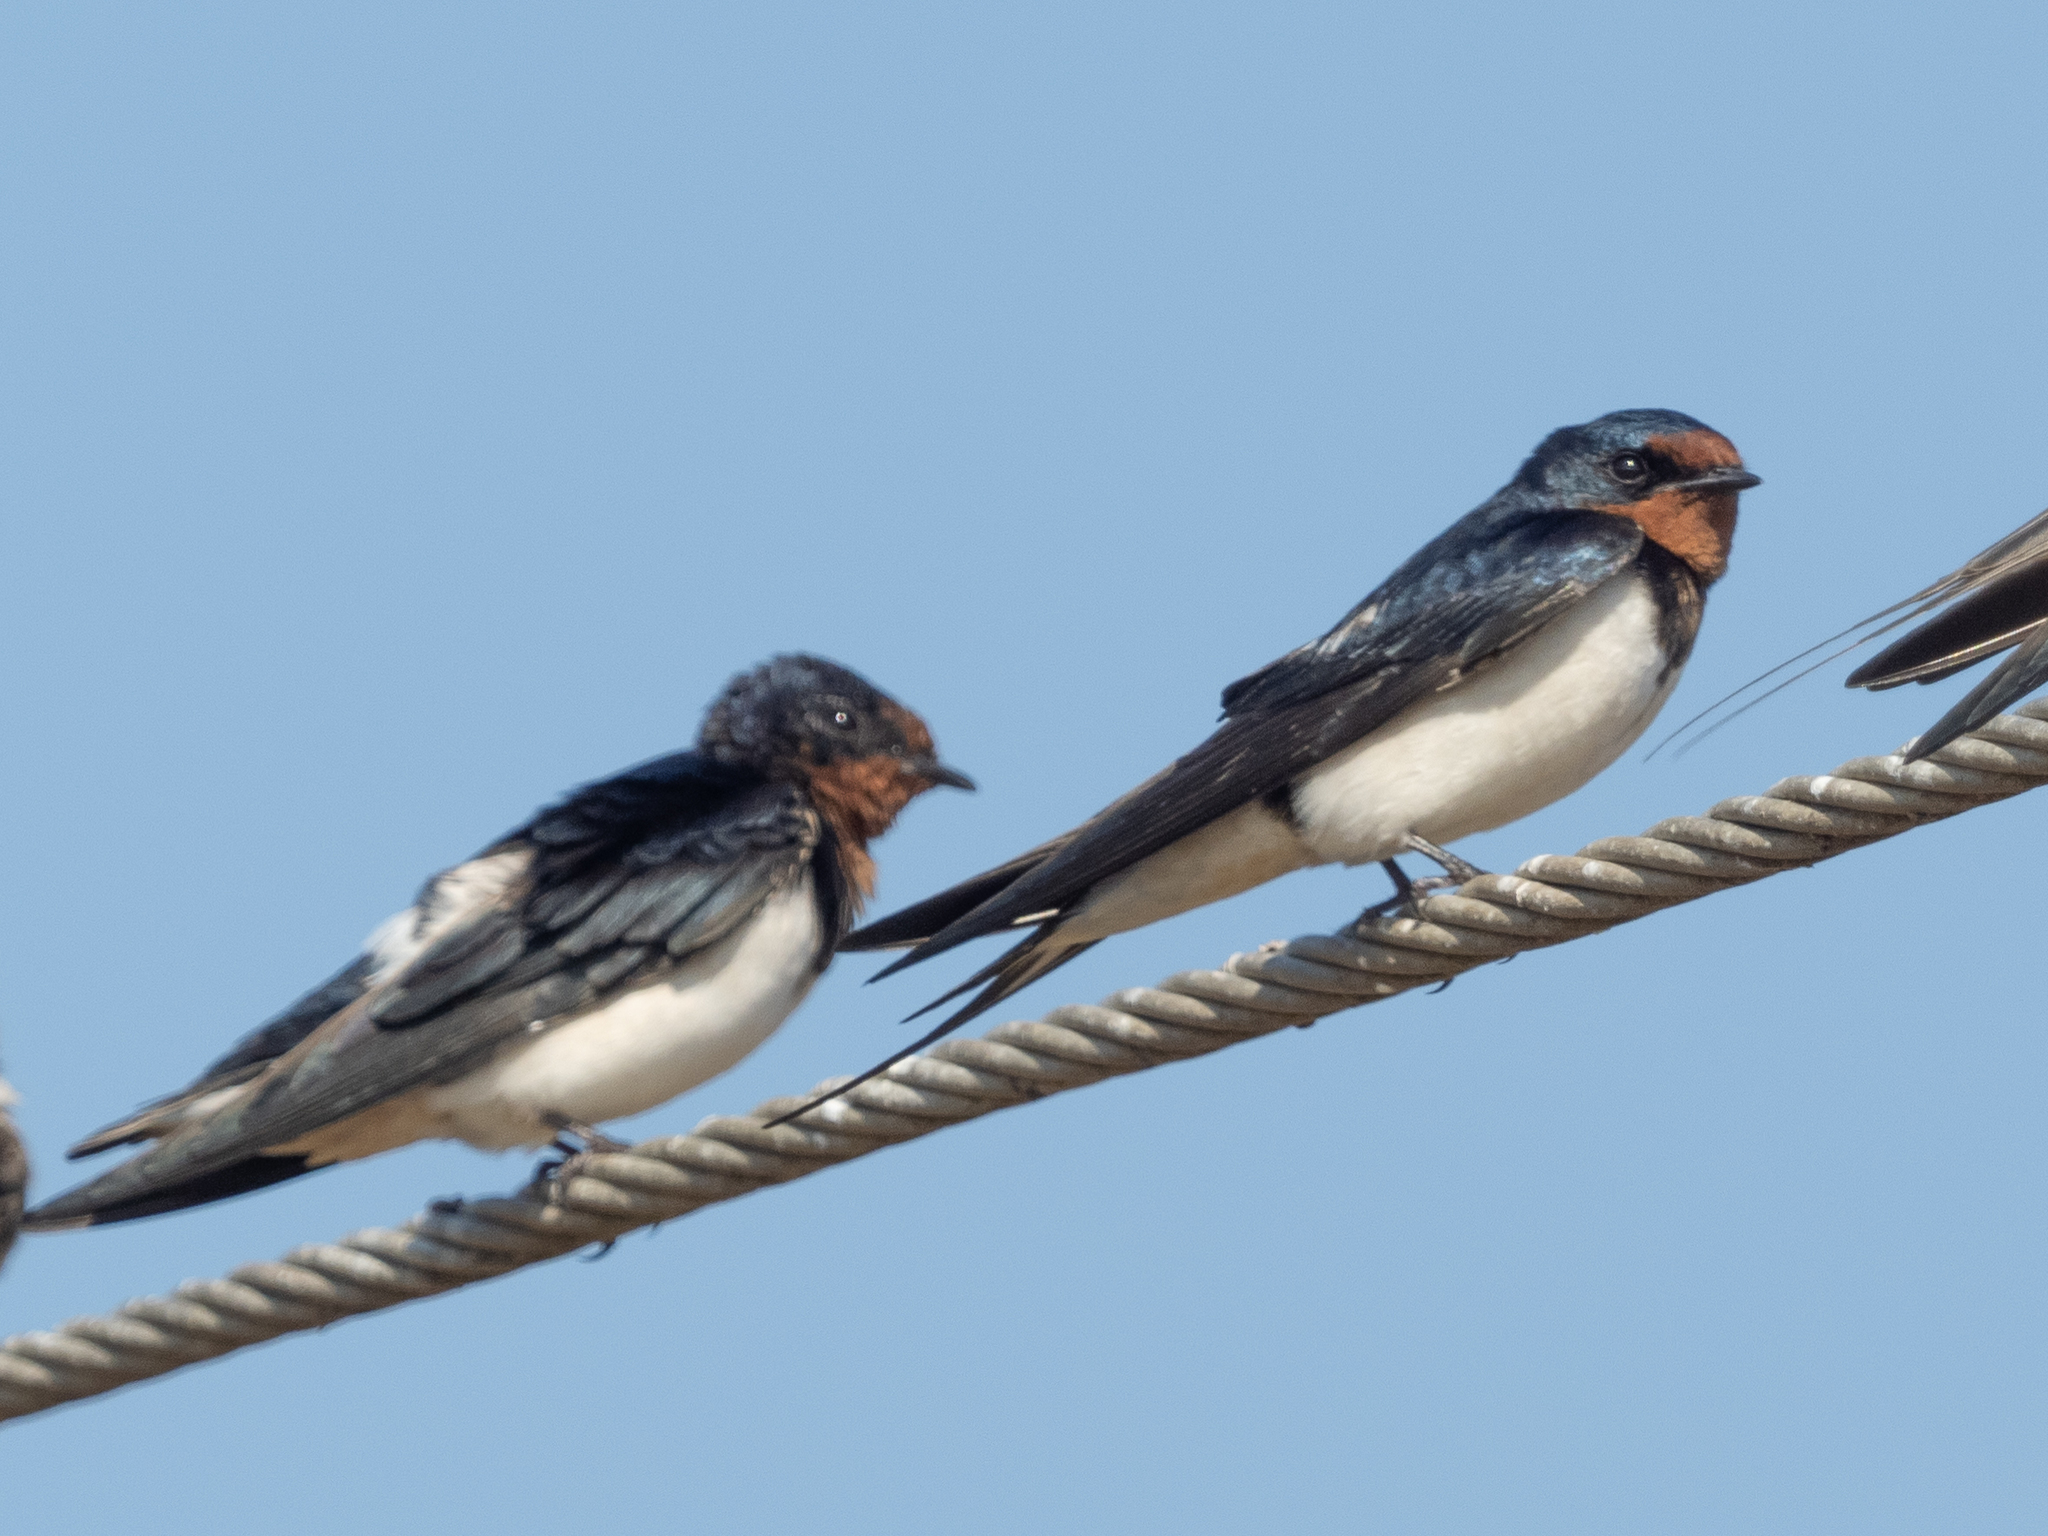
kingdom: Animalia
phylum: Chordata
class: Aves
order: Passeriformes
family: Hirundinidae
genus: Hirundo
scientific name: Hirundo rustica
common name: Barn swallow
